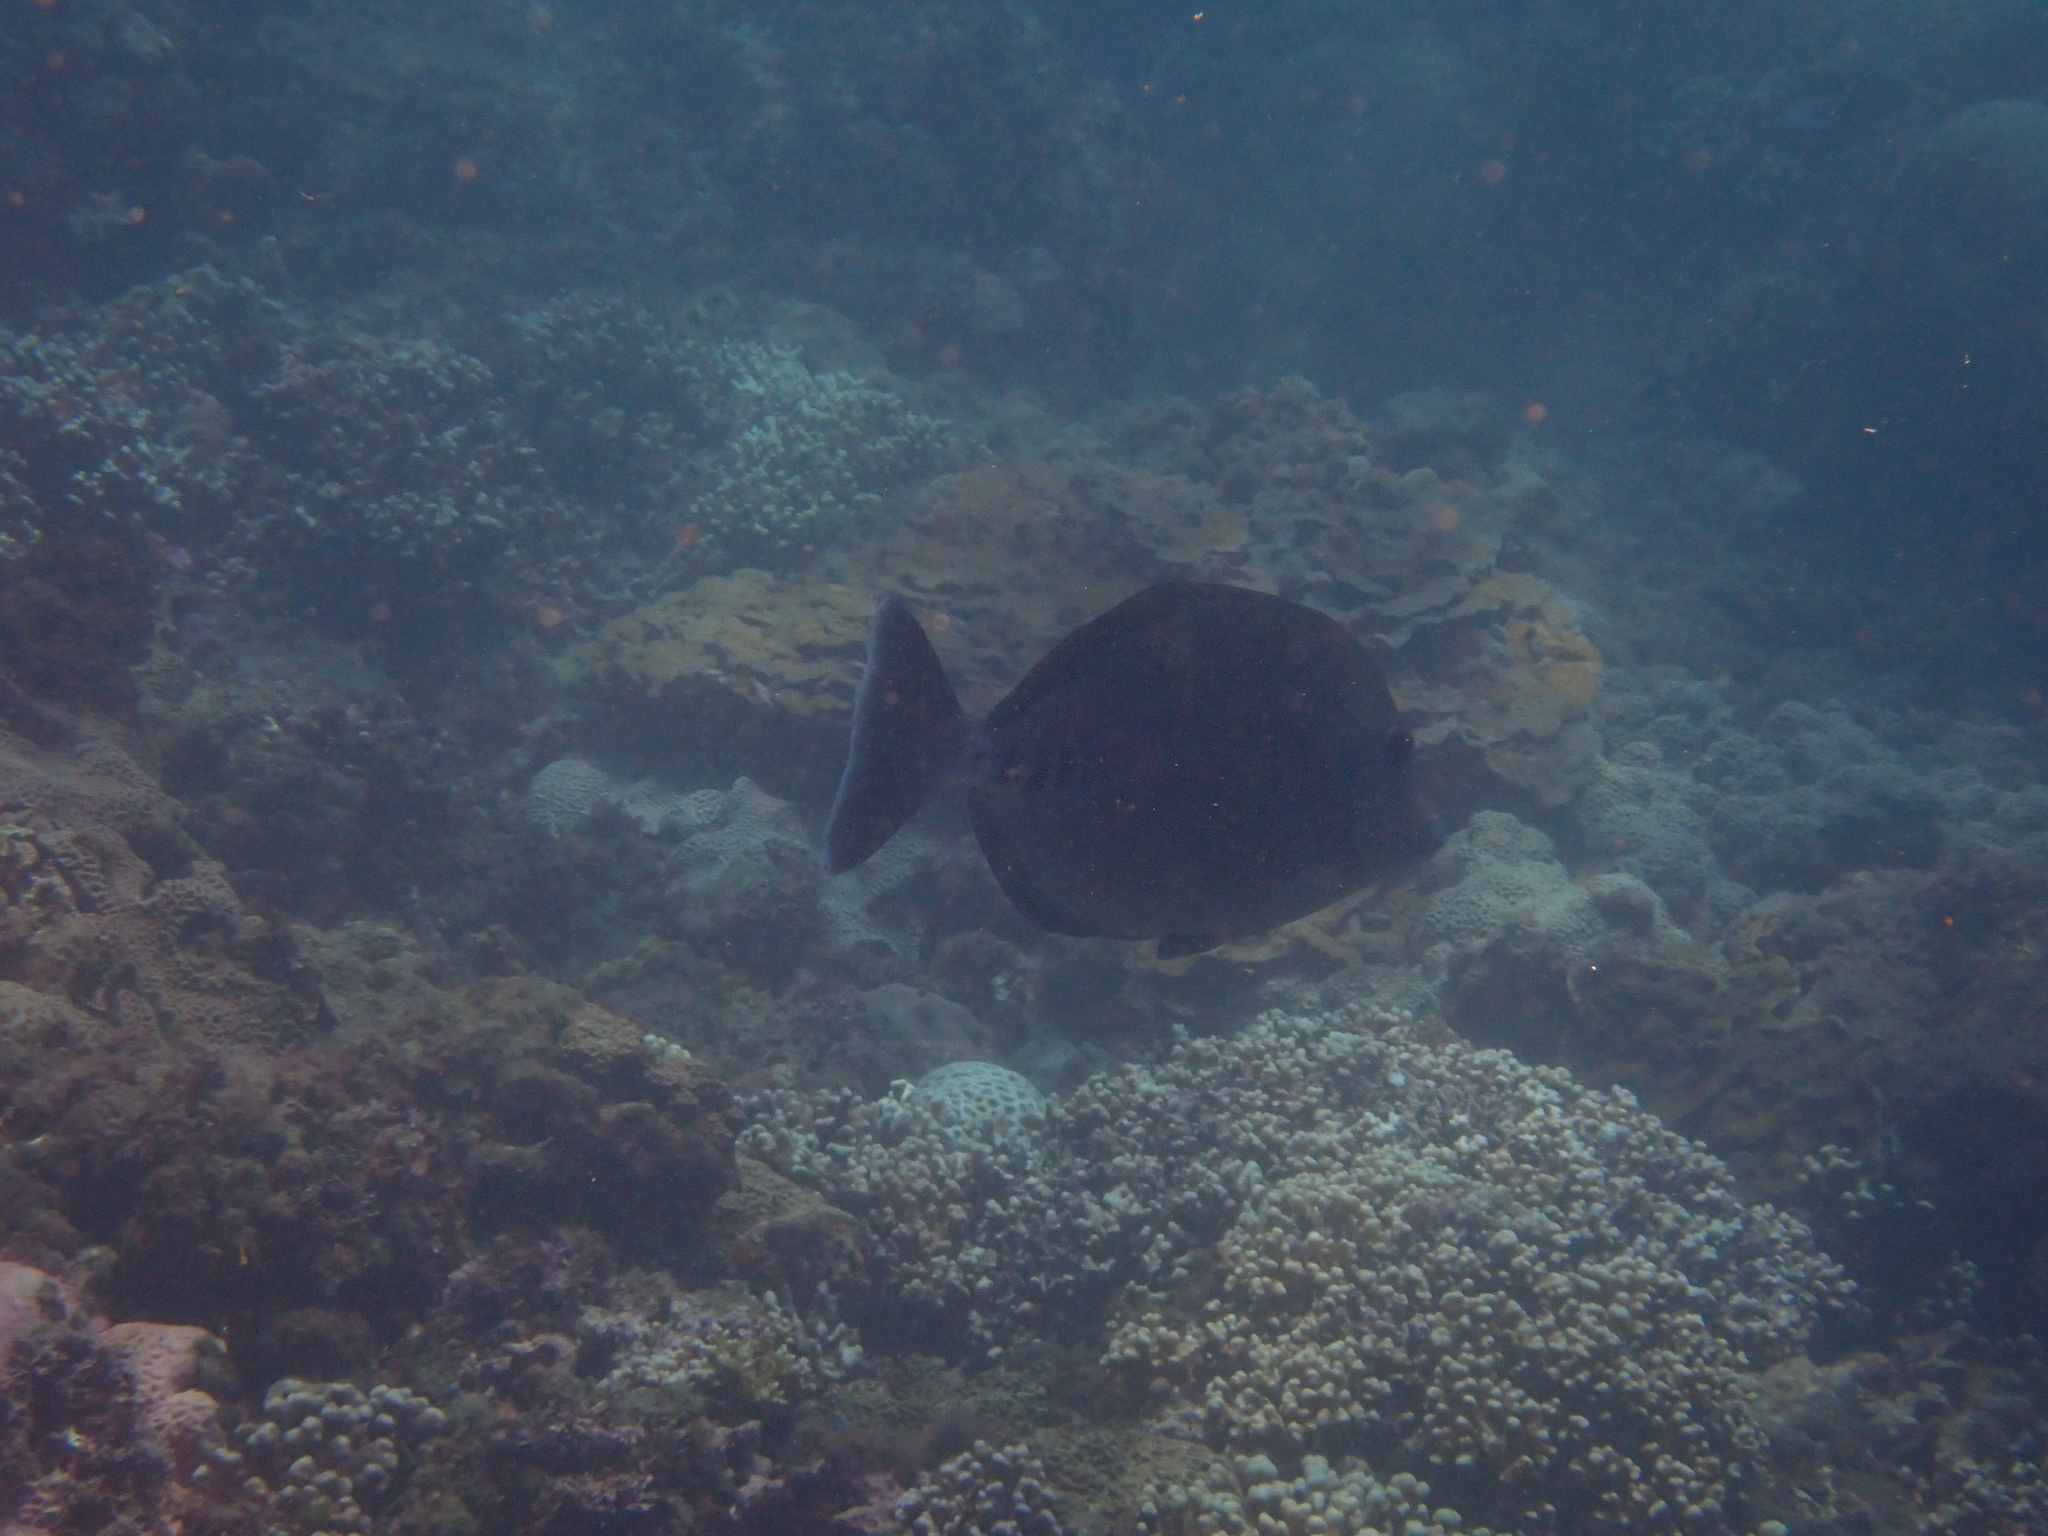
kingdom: Animalia
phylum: Chordata
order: Perciformes
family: Acanthuridae
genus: Prionurus
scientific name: Prionurus scalprum
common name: Japanese sawtail
